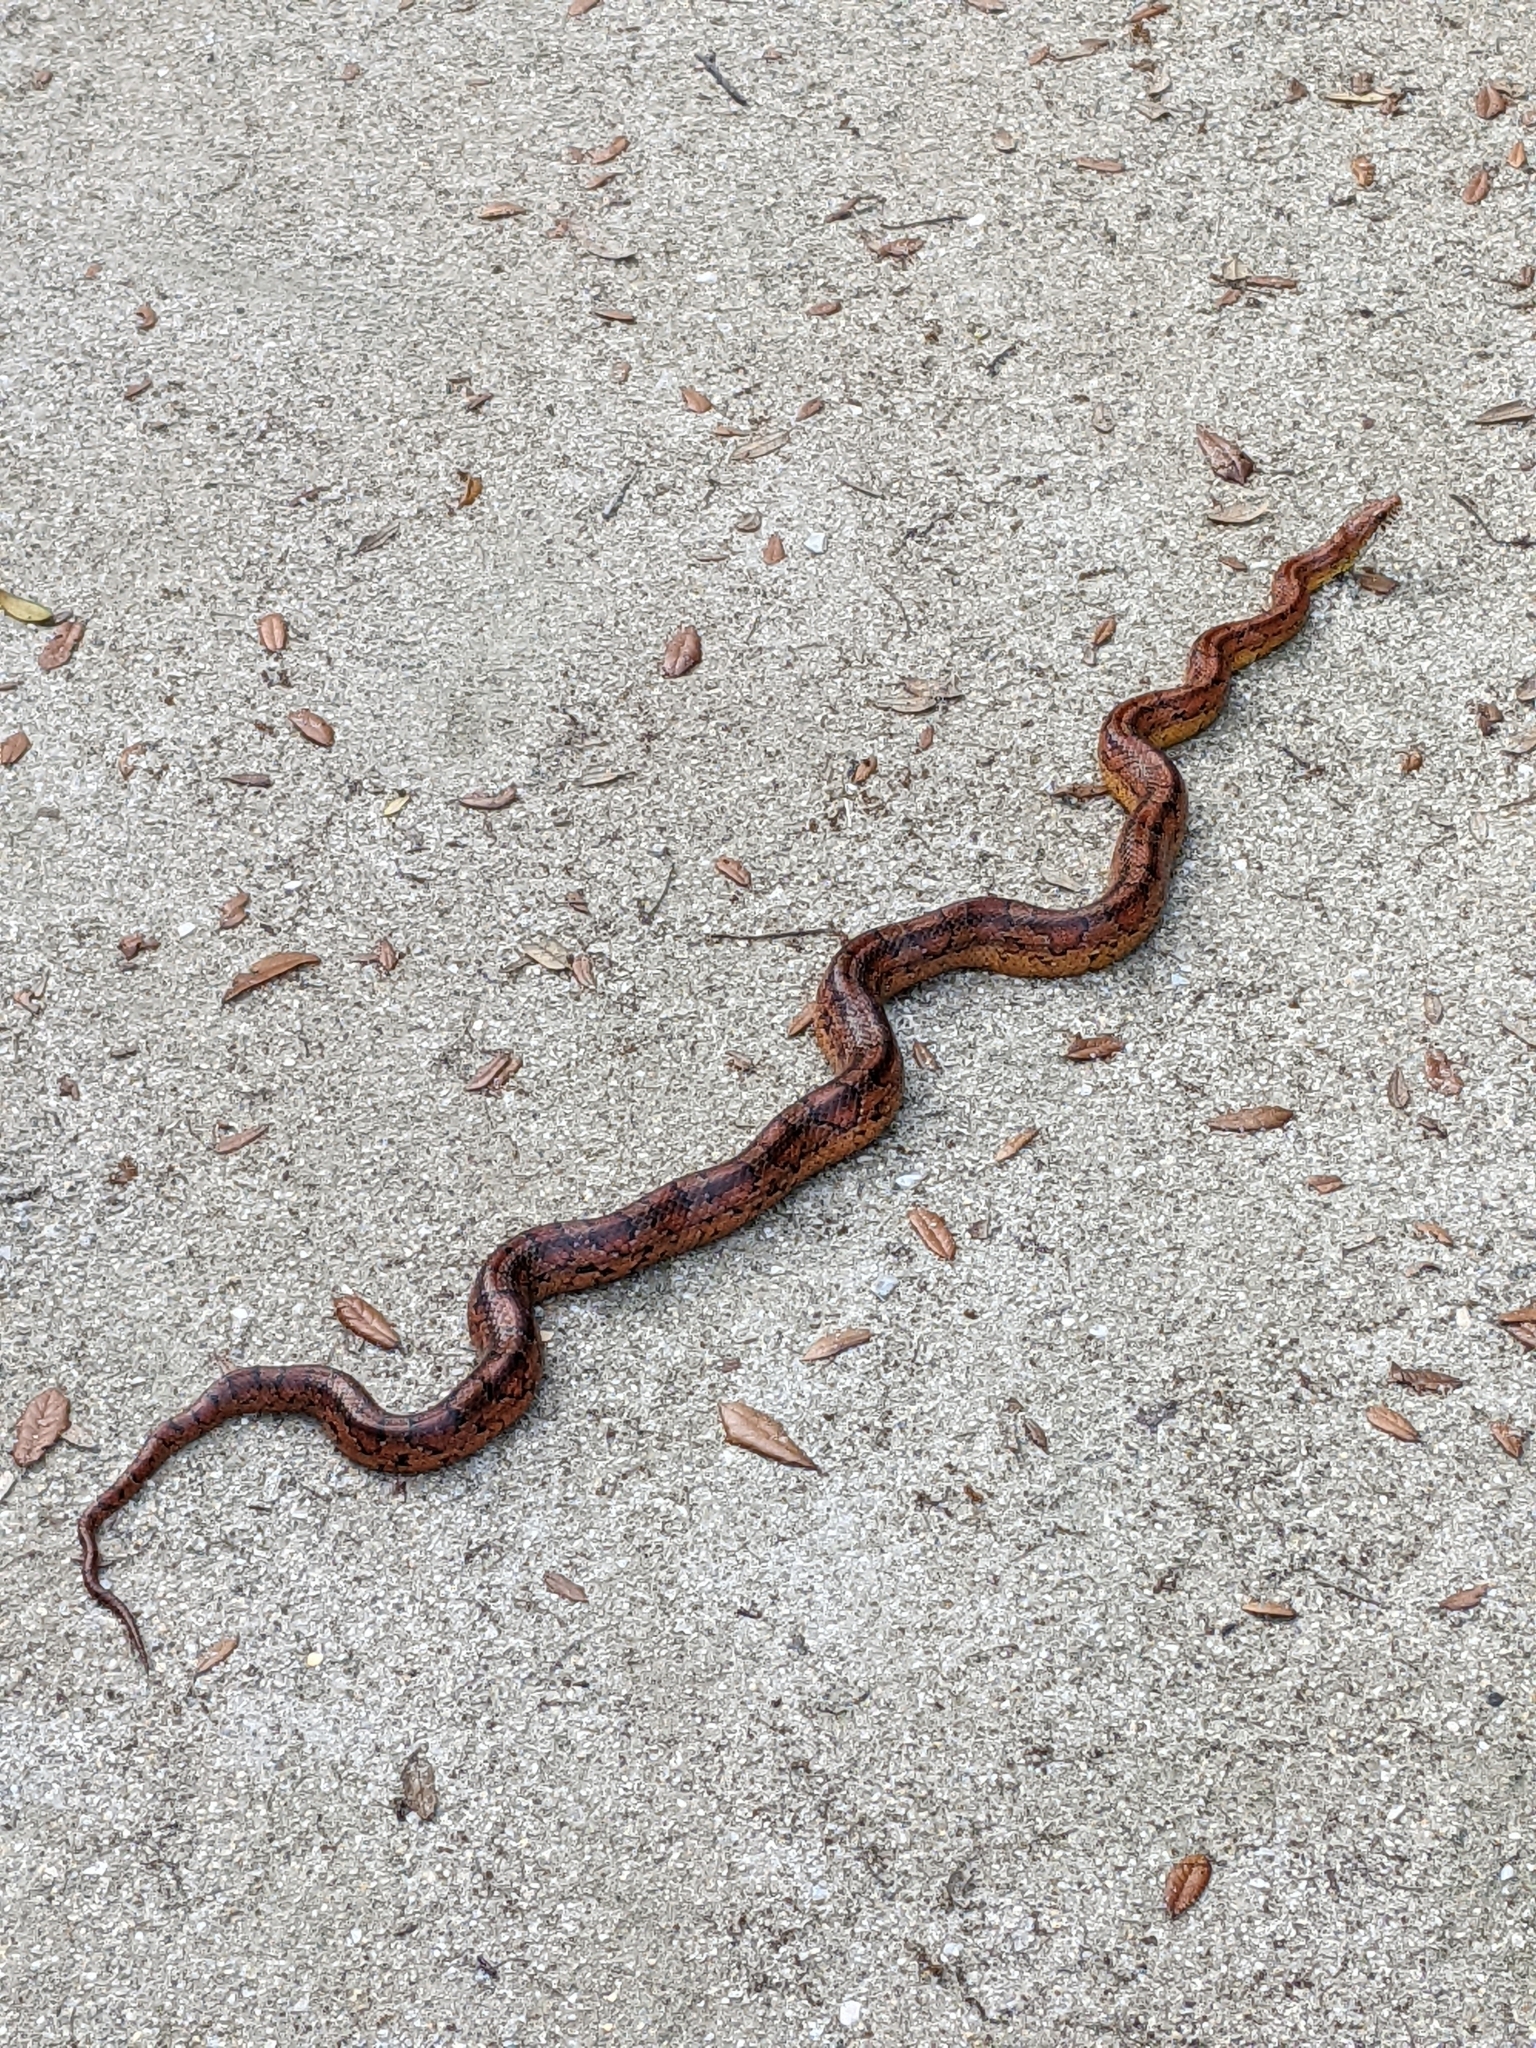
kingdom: Animalia
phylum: Chordata
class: Squamata
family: Colubridae
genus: Pantherophis
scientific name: Pantherophis guttatus
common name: Red cornsnake
